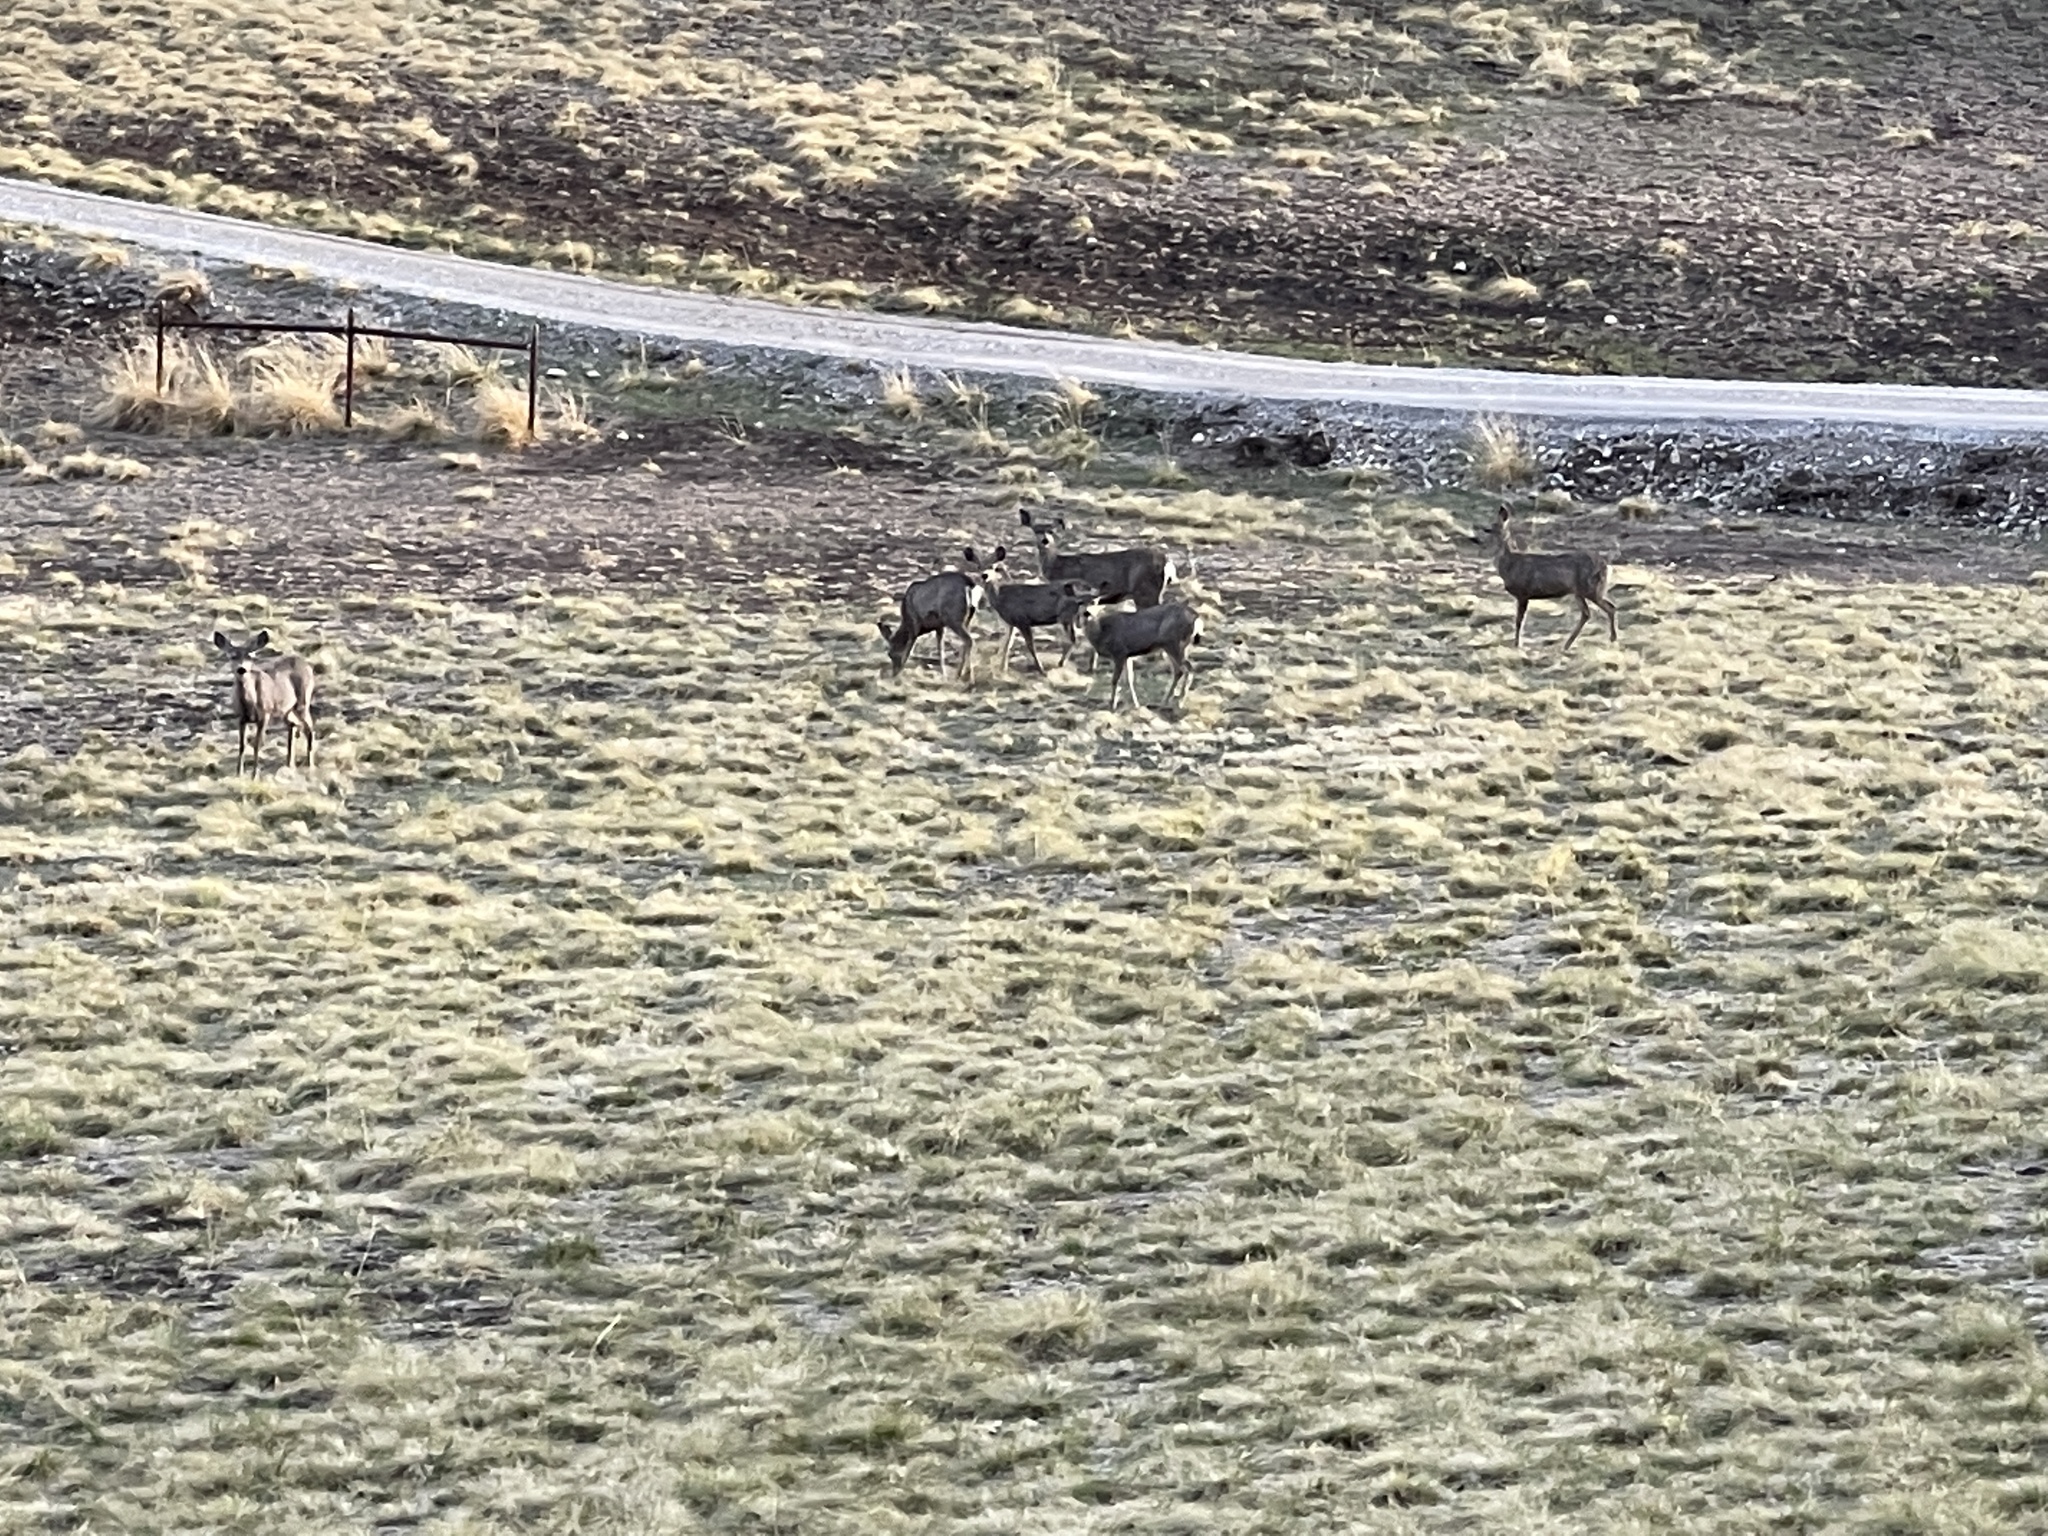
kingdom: Animalia
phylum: Chordata
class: Mammalia
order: Artiodactyla
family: Cervidae
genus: Odocoileus
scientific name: Odocoileus hemionus
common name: Mule deer
